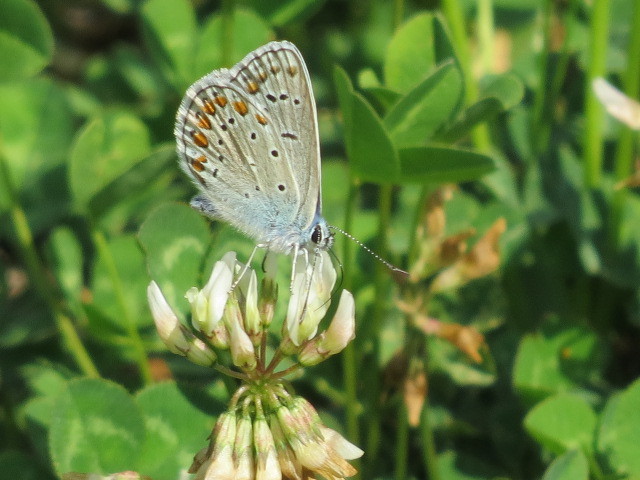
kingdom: Animalia
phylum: Arthropoda
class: Insecta
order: Lepidoptera
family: Lycaenidae
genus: Polyommatus
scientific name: Polyommatus icarus
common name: Common blue
